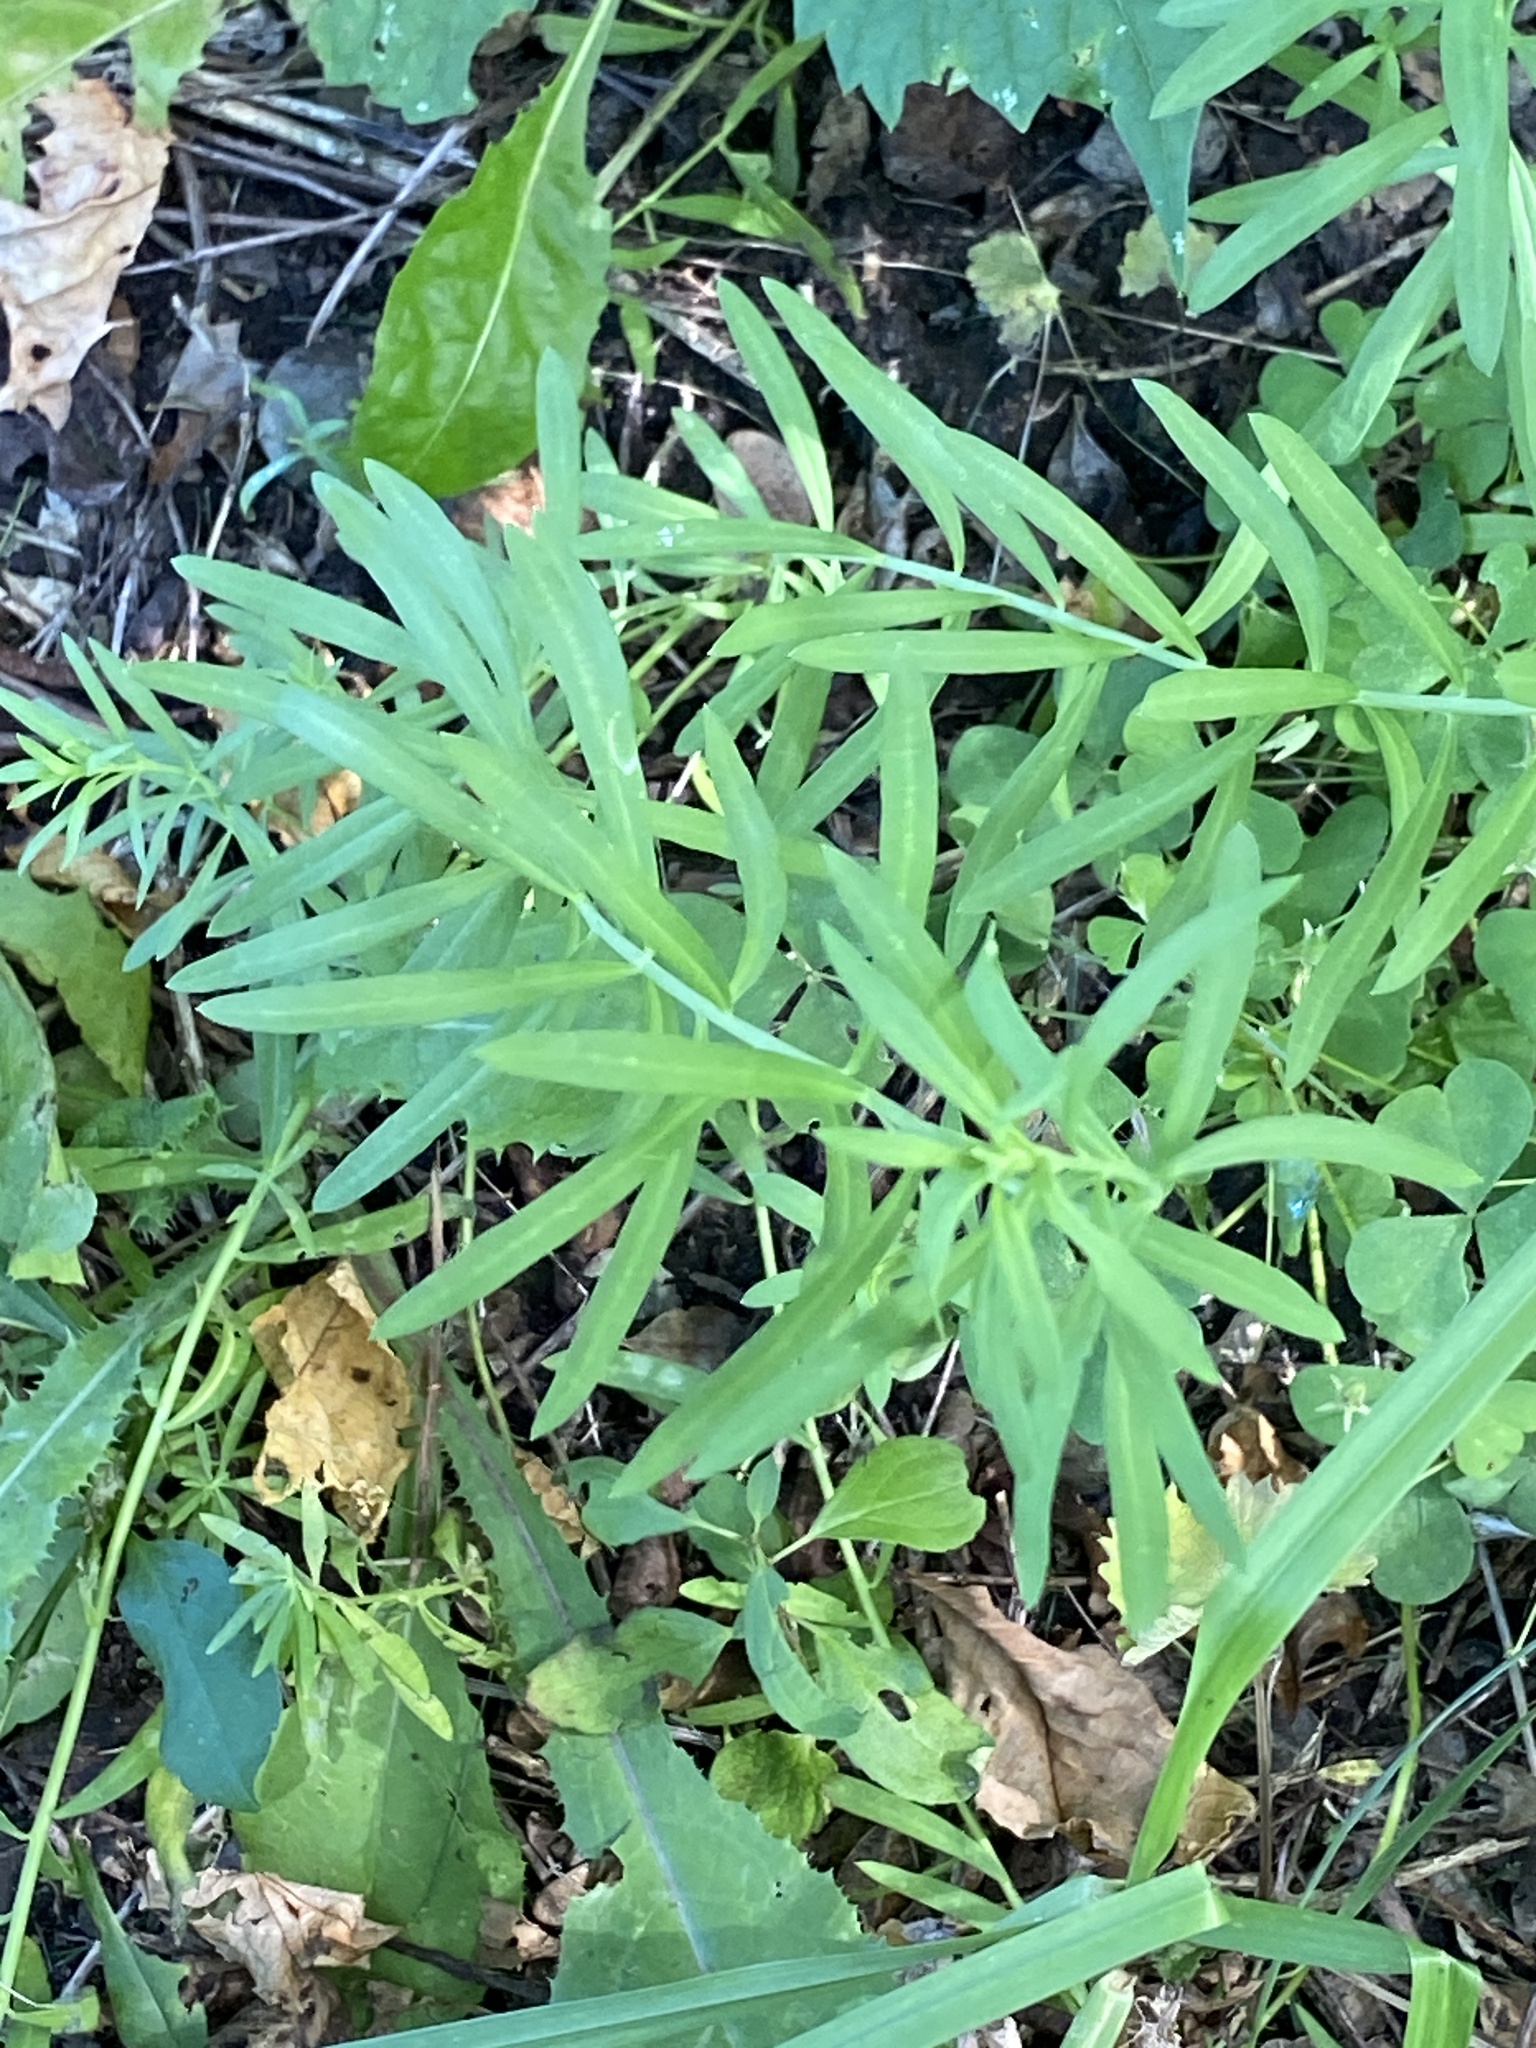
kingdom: Plantae
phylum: Tracheophyta
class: Magnoliopsida
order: Lamiales
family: Plantaginaceae
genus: Linaria
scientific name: Linaria vulgaris
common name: Butter and eggs
